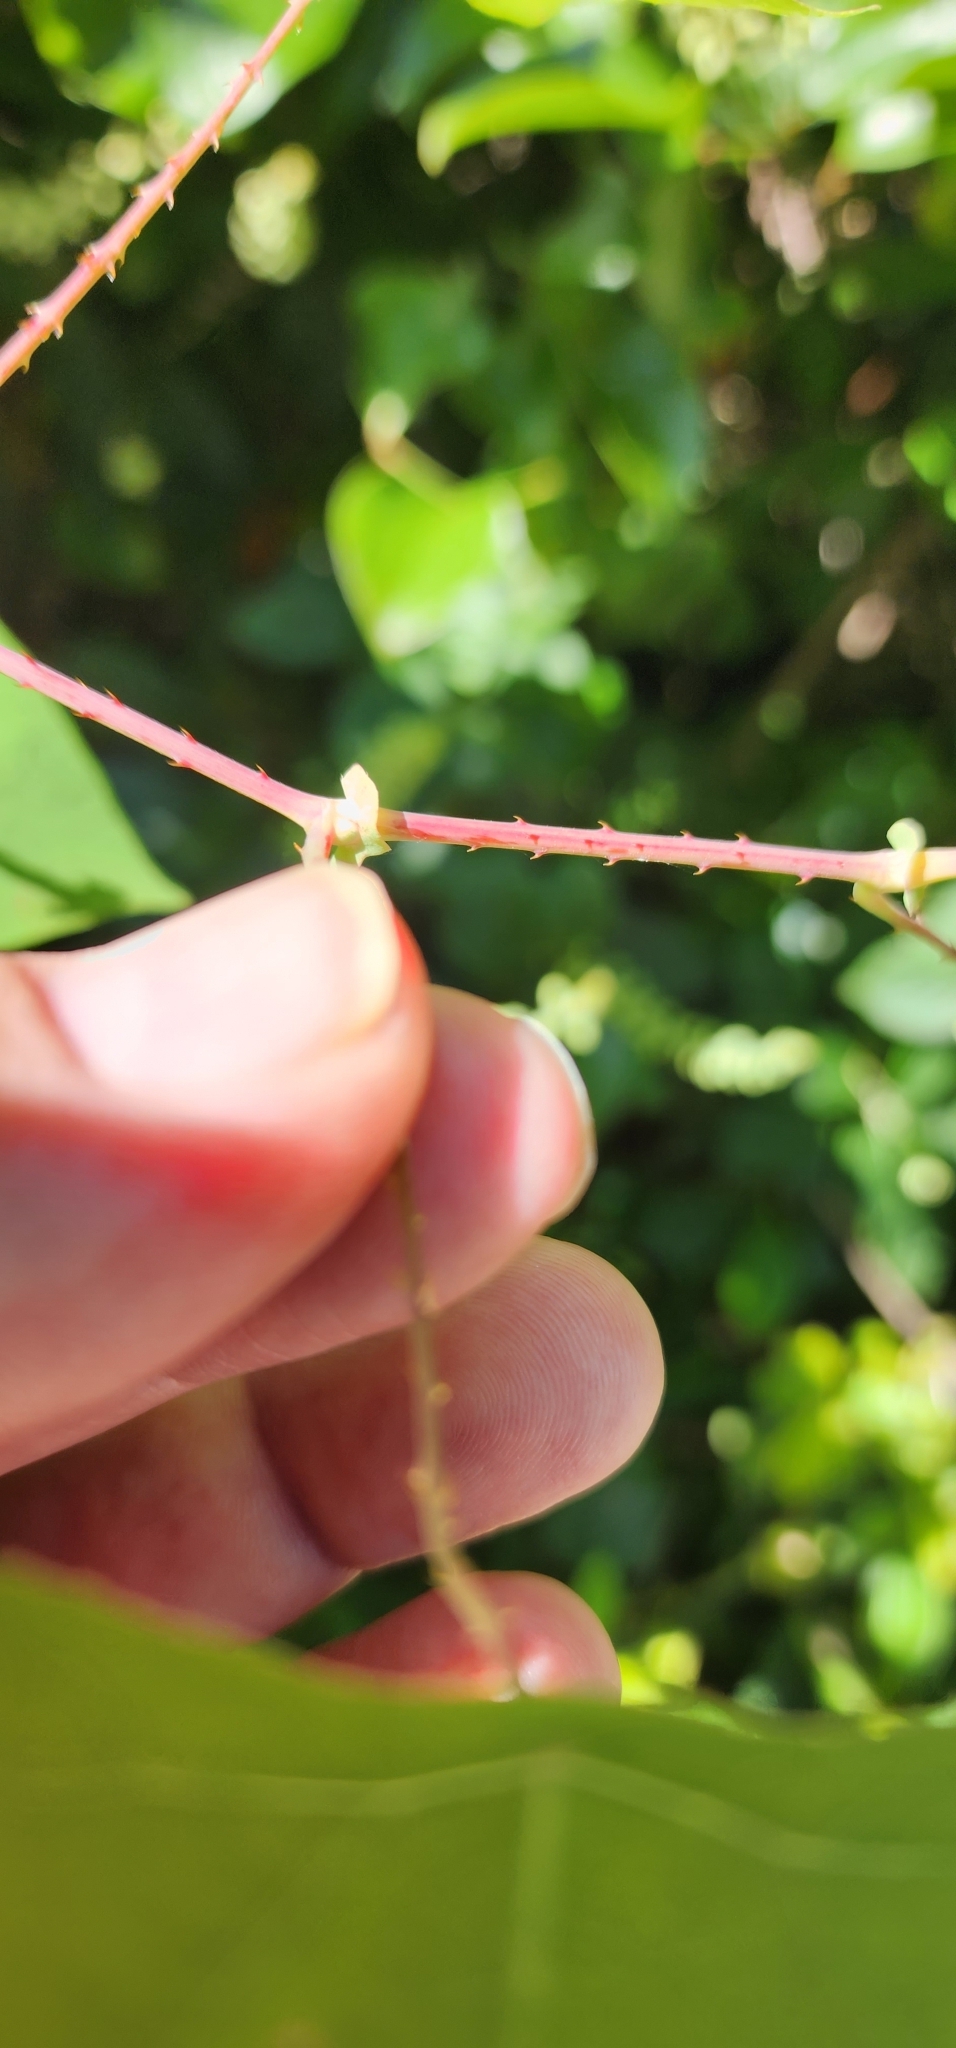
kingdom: Plantae
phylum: Tracheophyta
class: Magnoliopsida
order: Caryophyllales
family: Polygonaceae
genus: Persicaria
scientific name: Persicaria perfoliata
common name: Asiatic tearthumb
